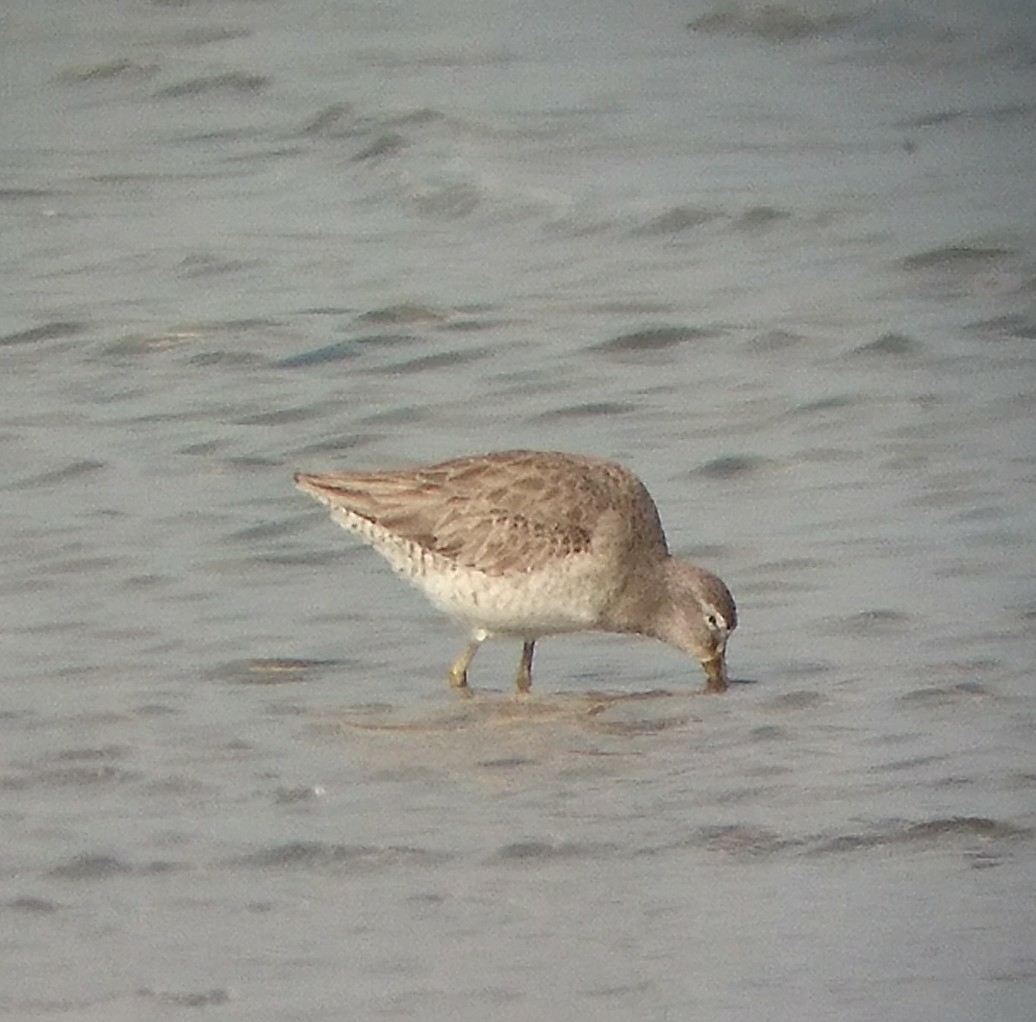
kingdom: Animalia
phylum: Chordata
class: Aves
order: Charadriiformes
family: Scolopacidae
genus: Limnodromus
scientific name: Limnodromus griseus
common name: Short-billed dowitcher
